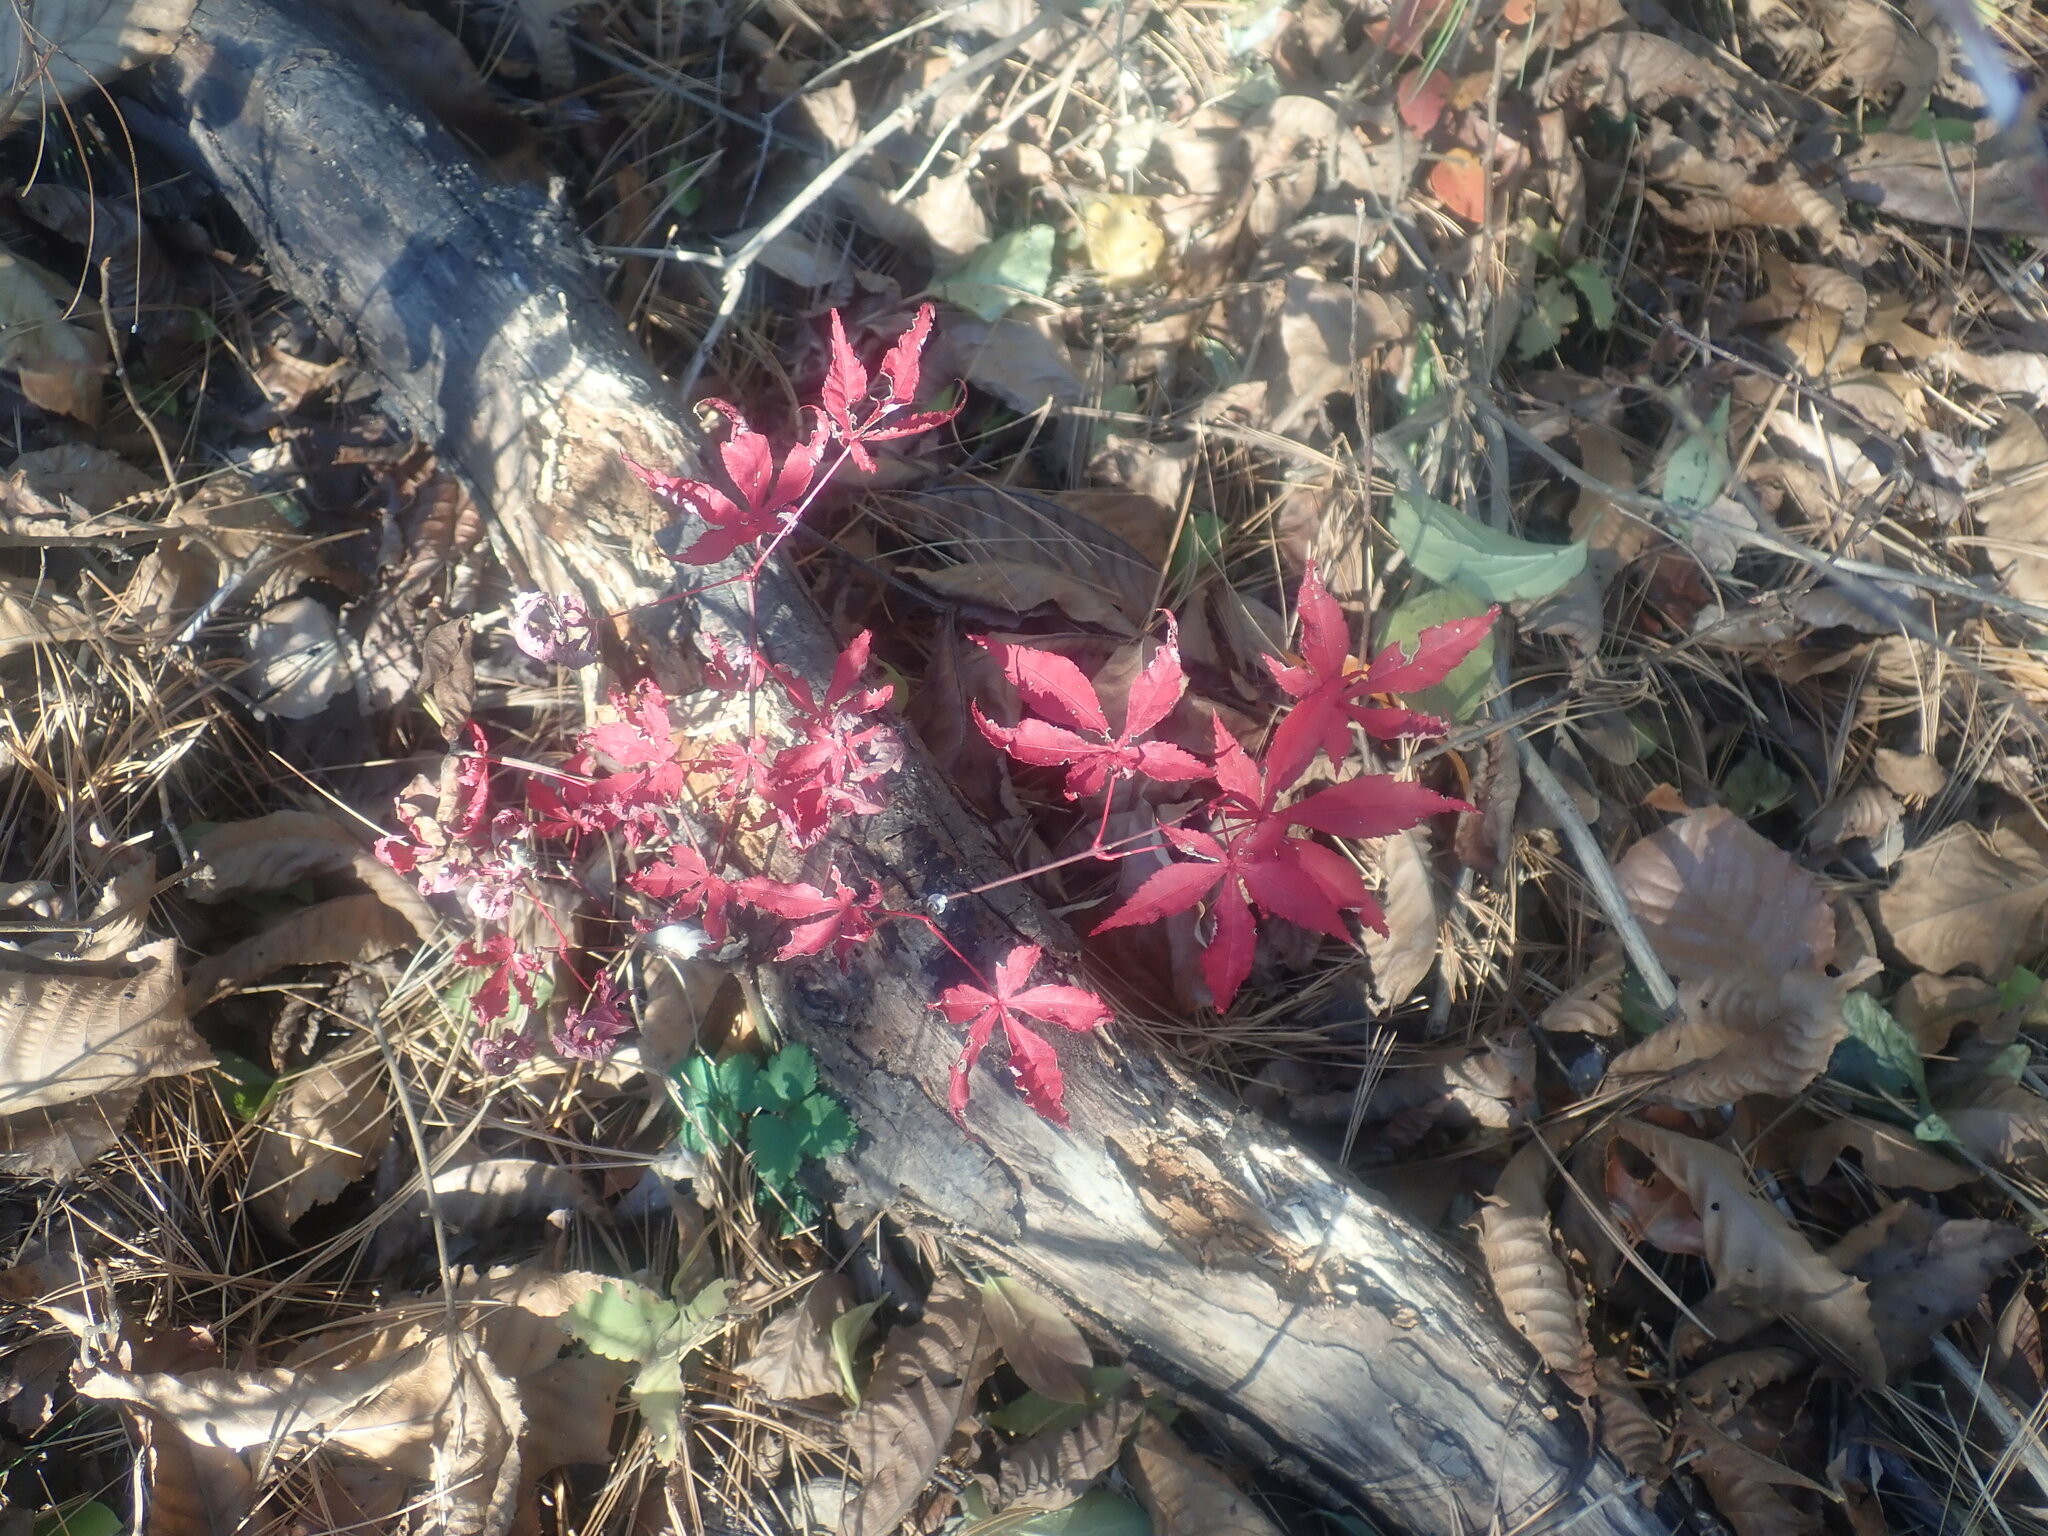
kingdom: Plantae
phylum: Tracheophyta
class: Magnoliopsida
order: Sapindales
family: Sapindaceae
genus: Acer
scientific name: Acer palmatum
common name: Japanese maple
